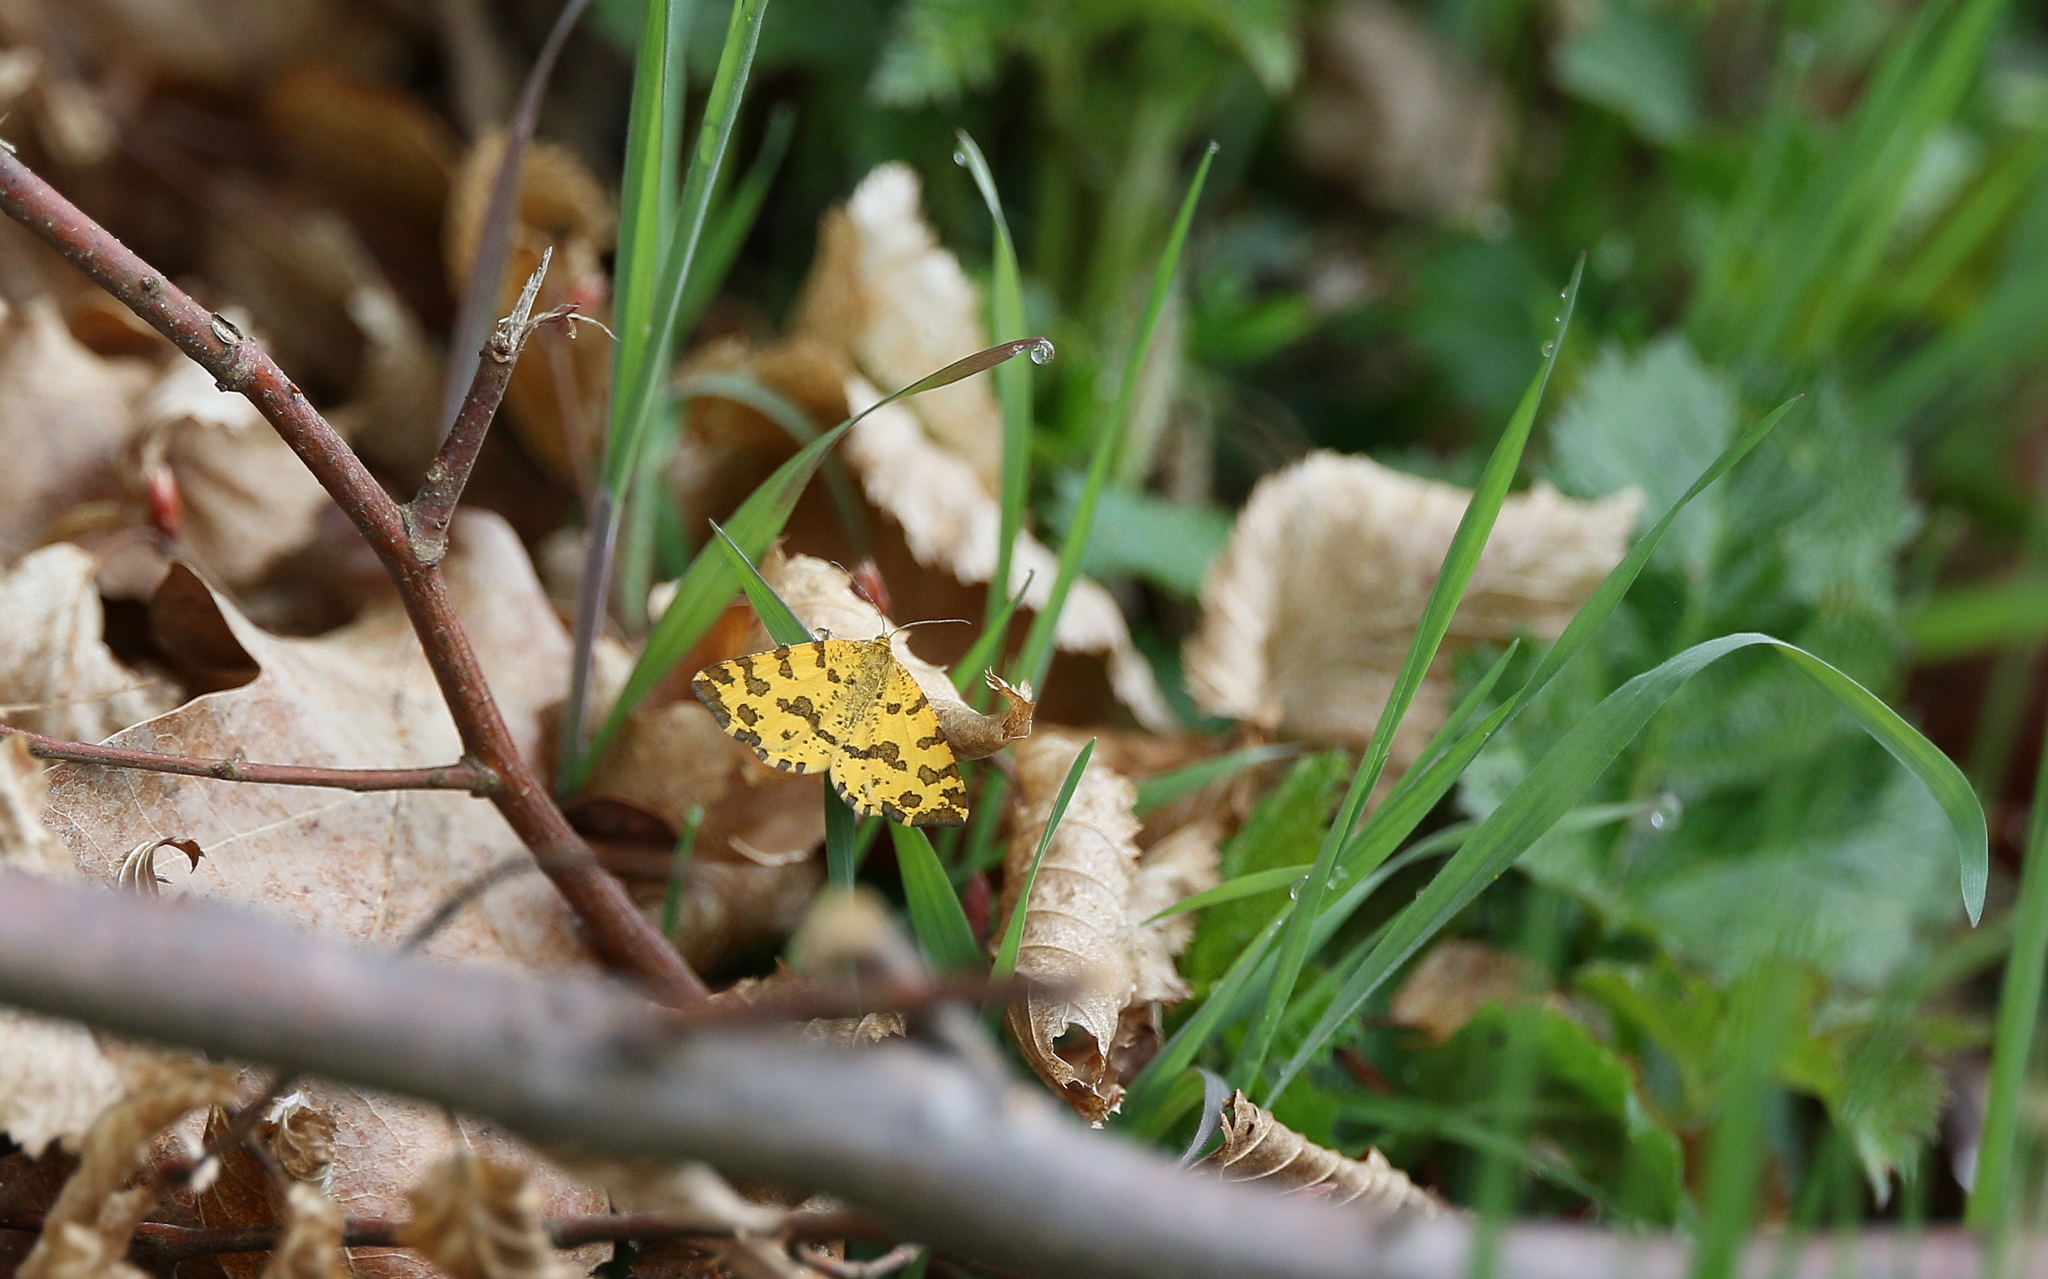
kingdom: Animalia
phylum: Arthropoda
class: Insecta
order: Lepidoptera
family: Geometridae
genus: Pseudopanthera
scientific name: Pseudopanthera macularia
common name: Speckled yellow
